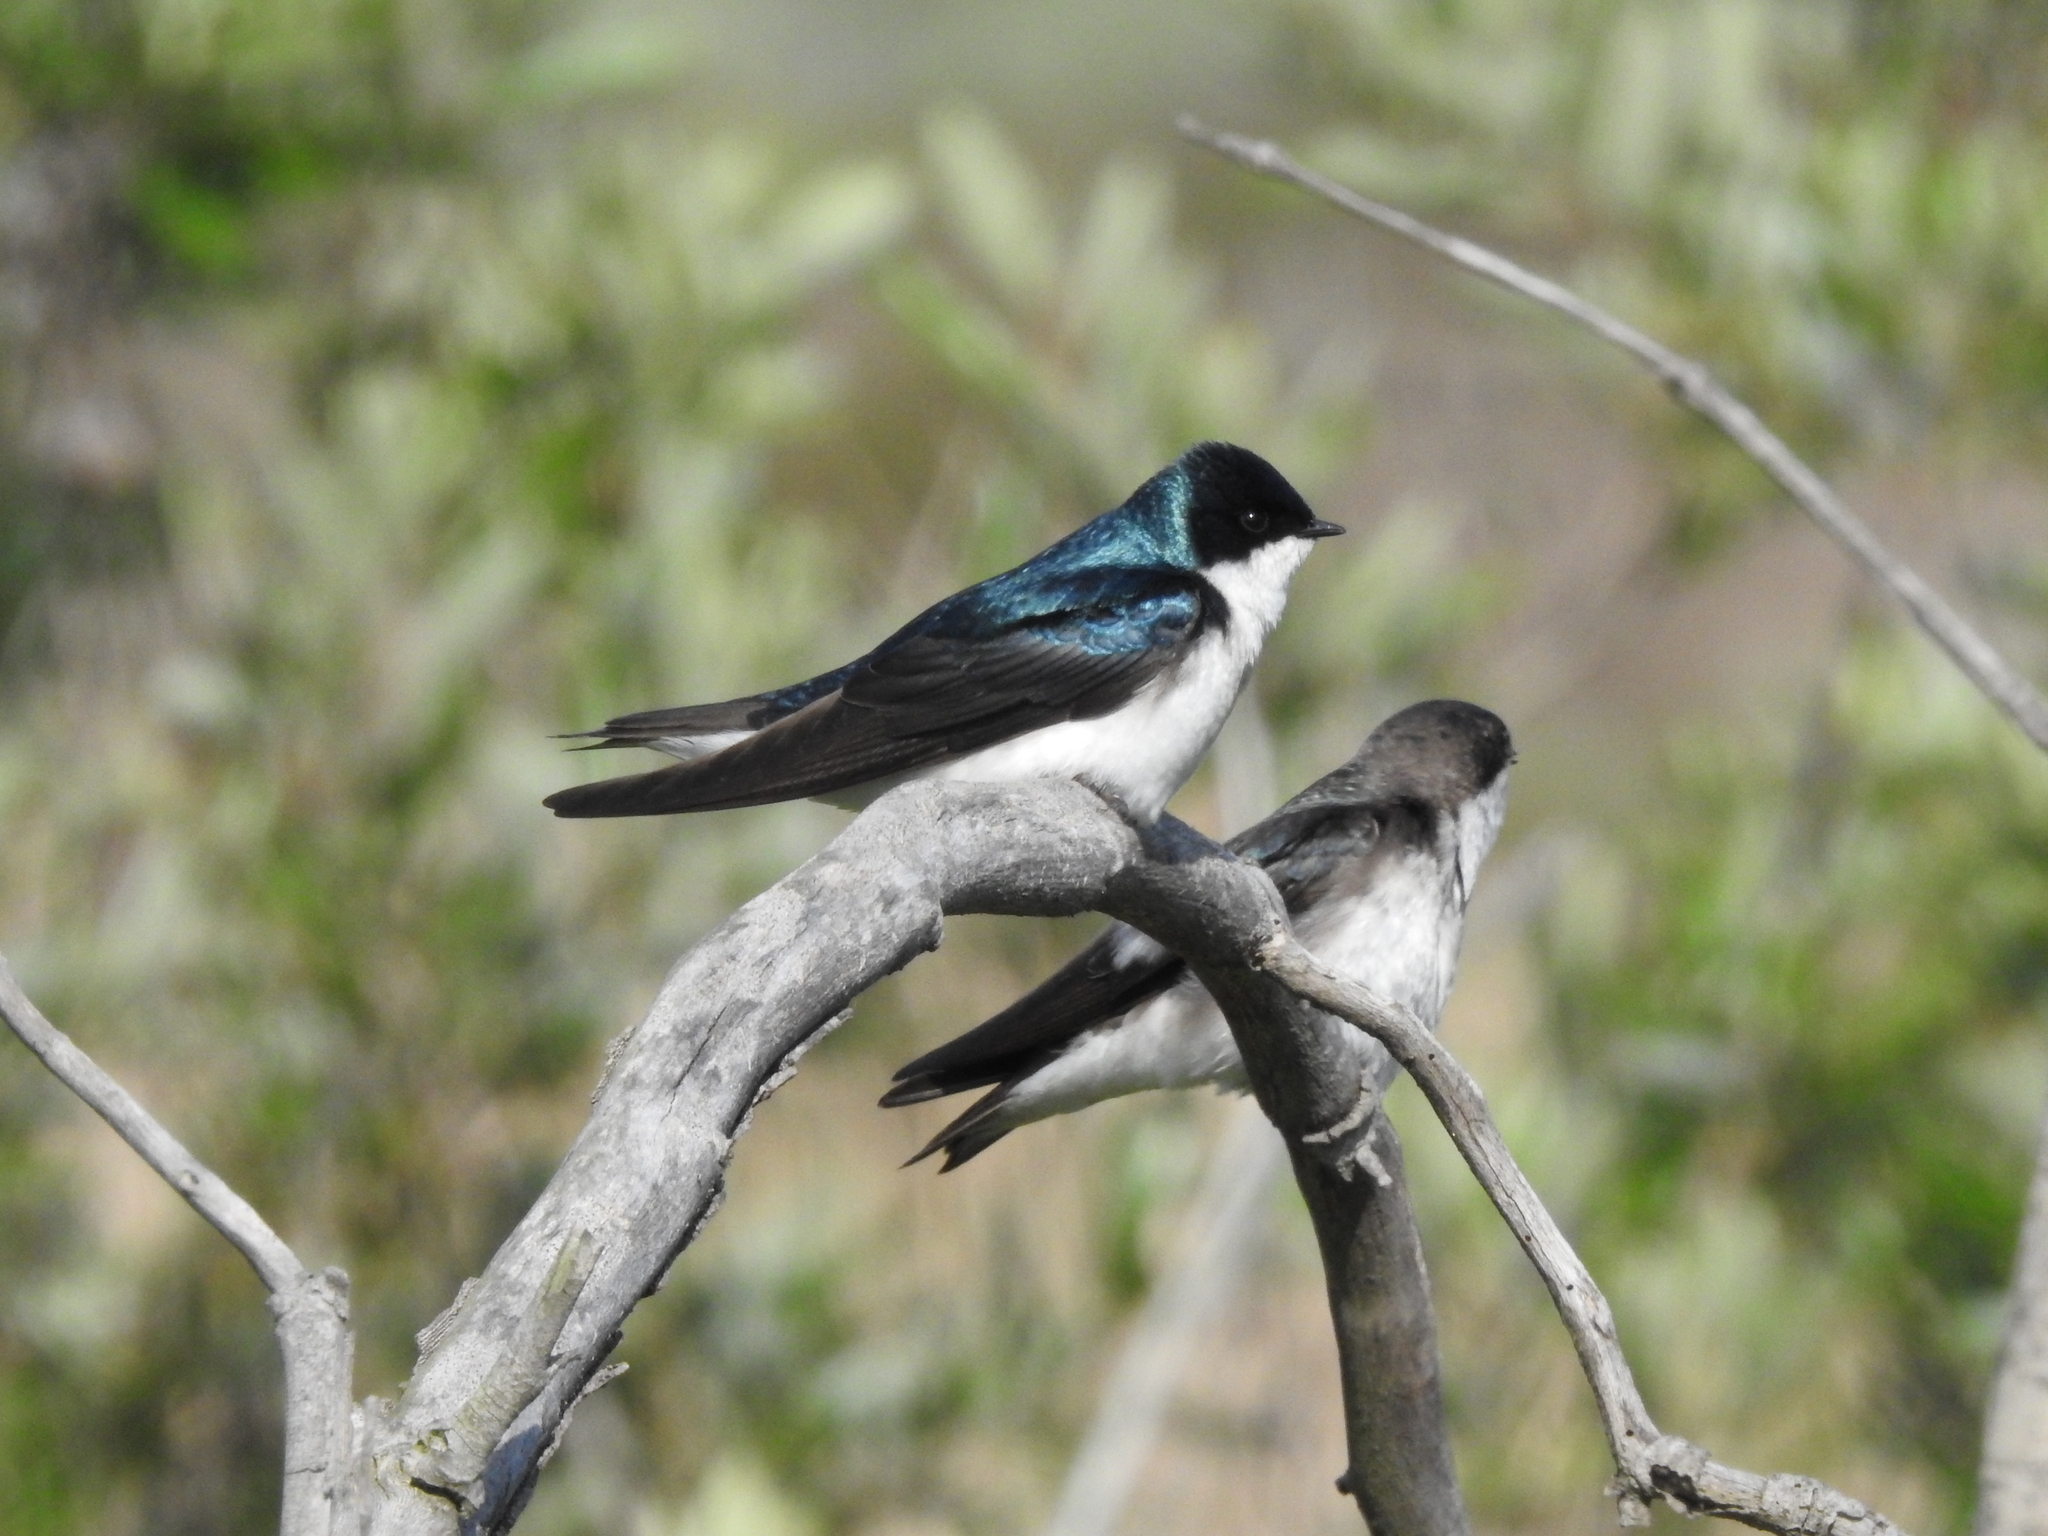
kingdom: Animalia
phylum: Chordata
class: Aves
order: Passeriformes
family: Hirundinidae
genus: Tachycineta
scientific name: Tachycineta bicolor
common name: Tree swallow
